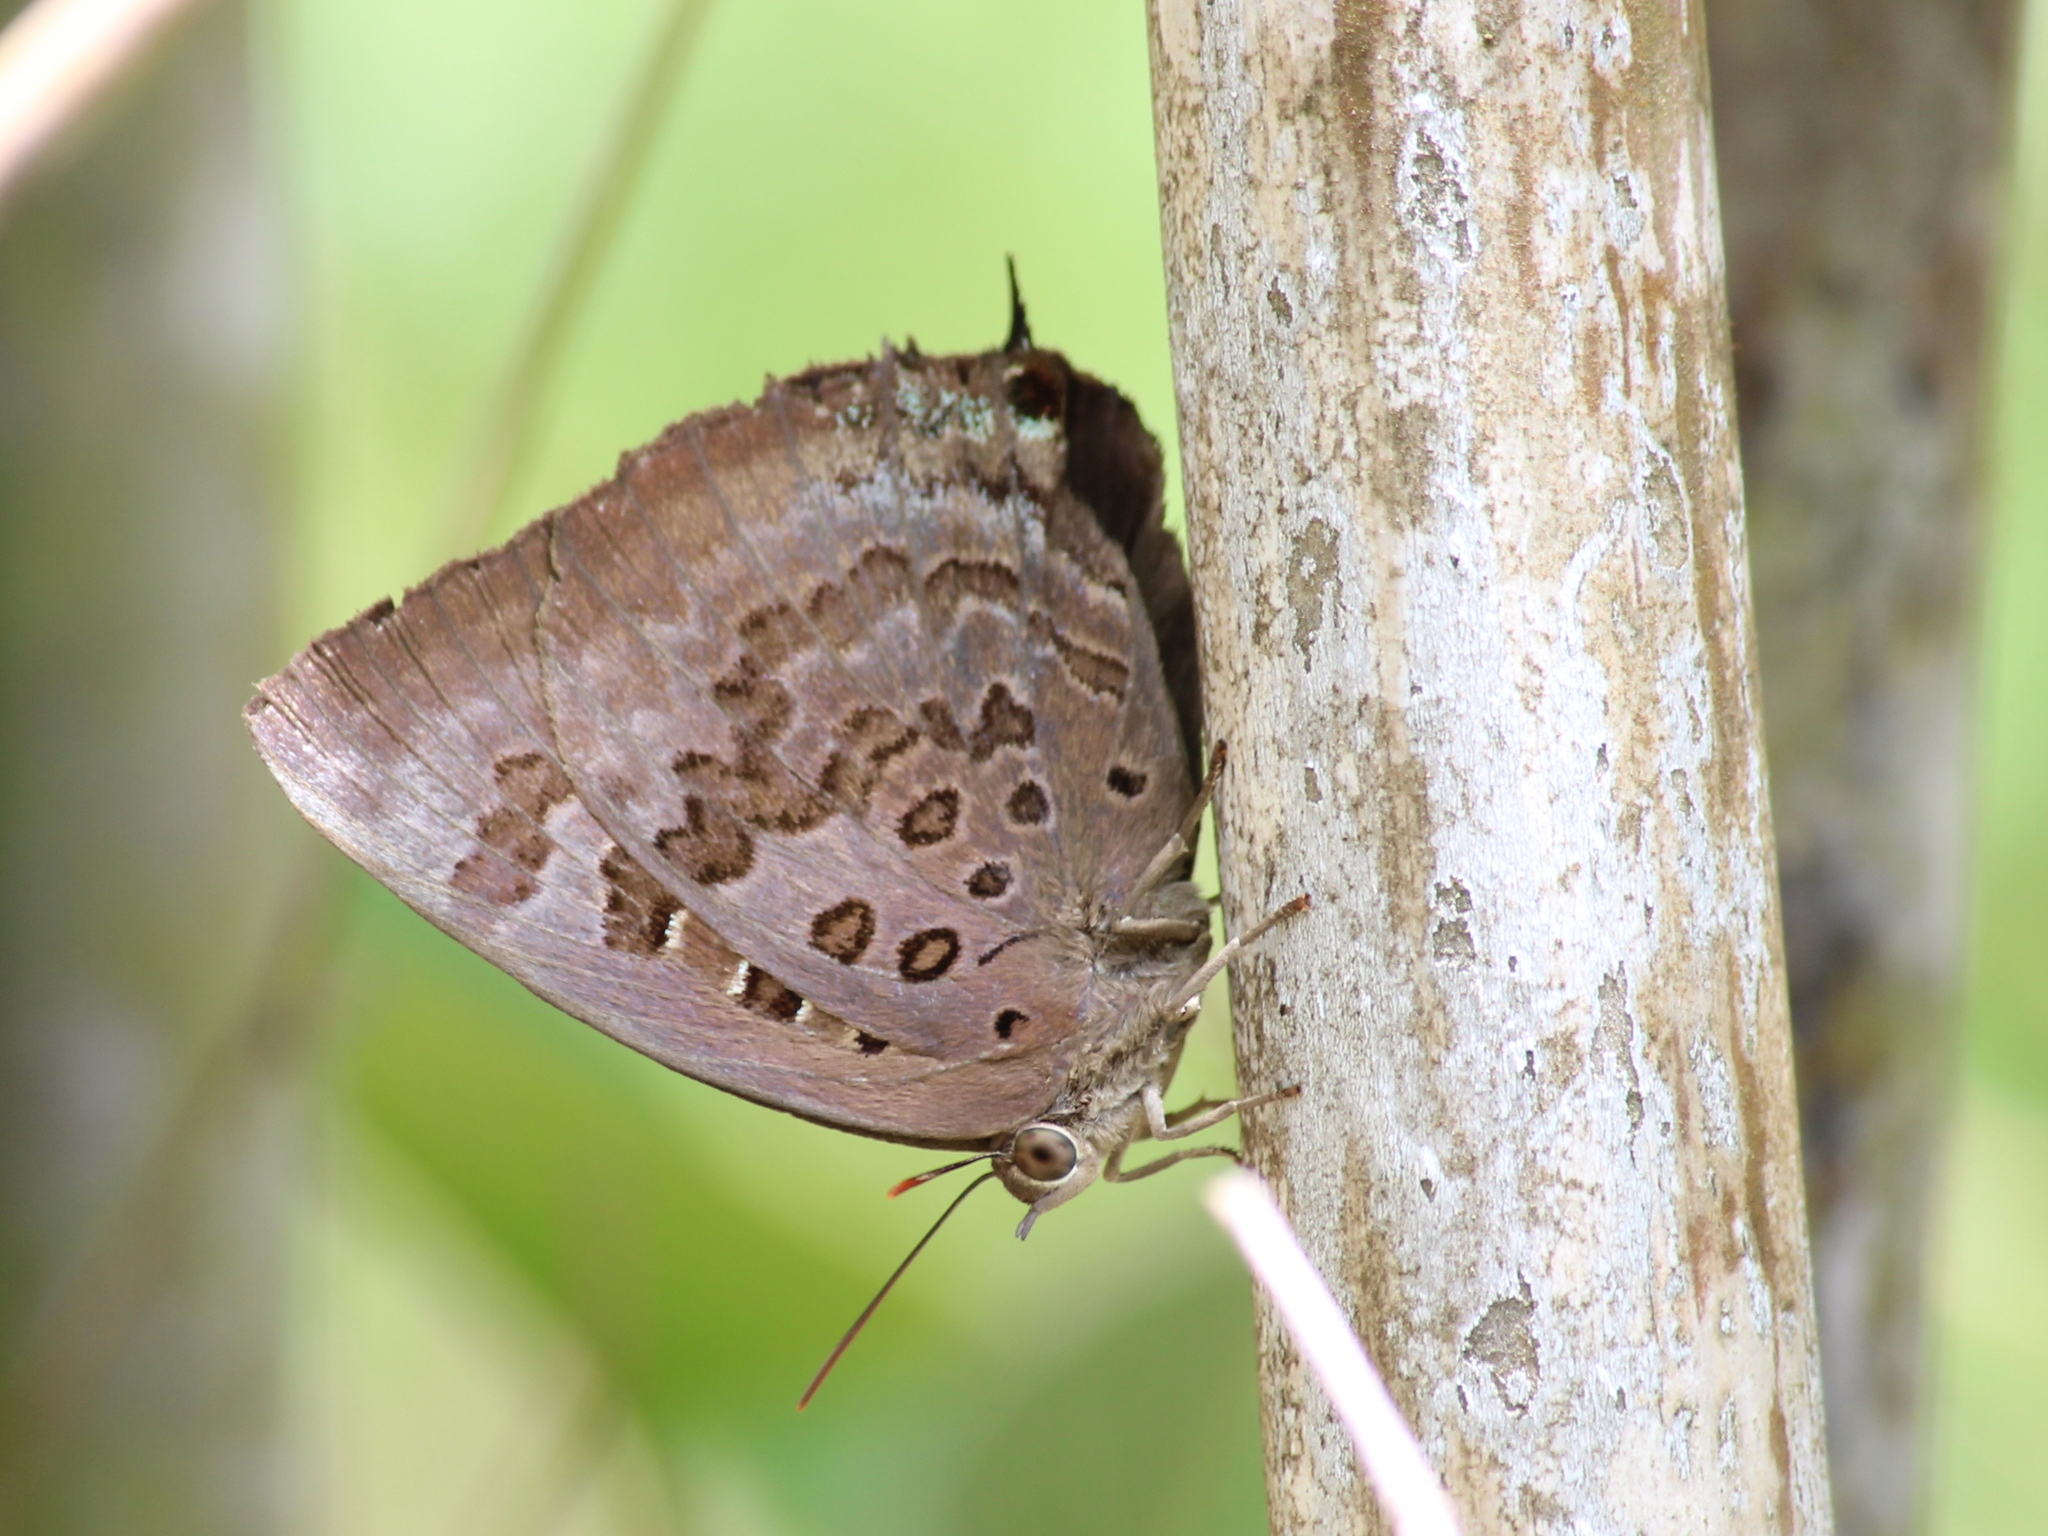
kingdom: Animalia
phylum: Arthropoda
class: Insecta
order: Lepidoptera
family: Lycaenidae
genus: Arhopala
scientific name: Arhopala amantes
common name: Large oakblue
